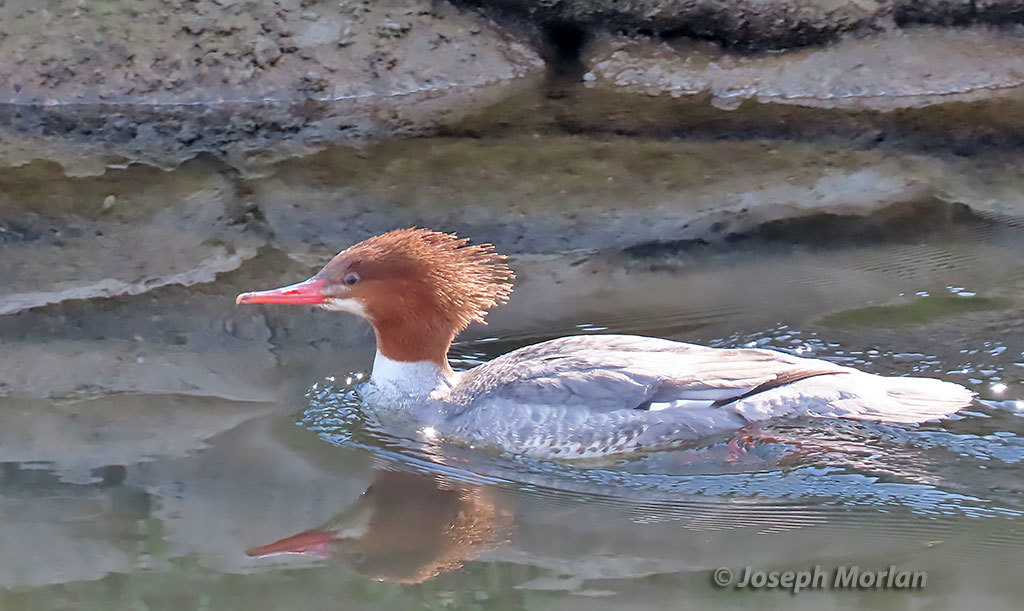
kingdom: Animalia
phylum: Chordata
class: Aves
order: Anseriformes
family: Anatidae
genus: Mergus
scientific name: Mergus merganser
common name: Common merganser
